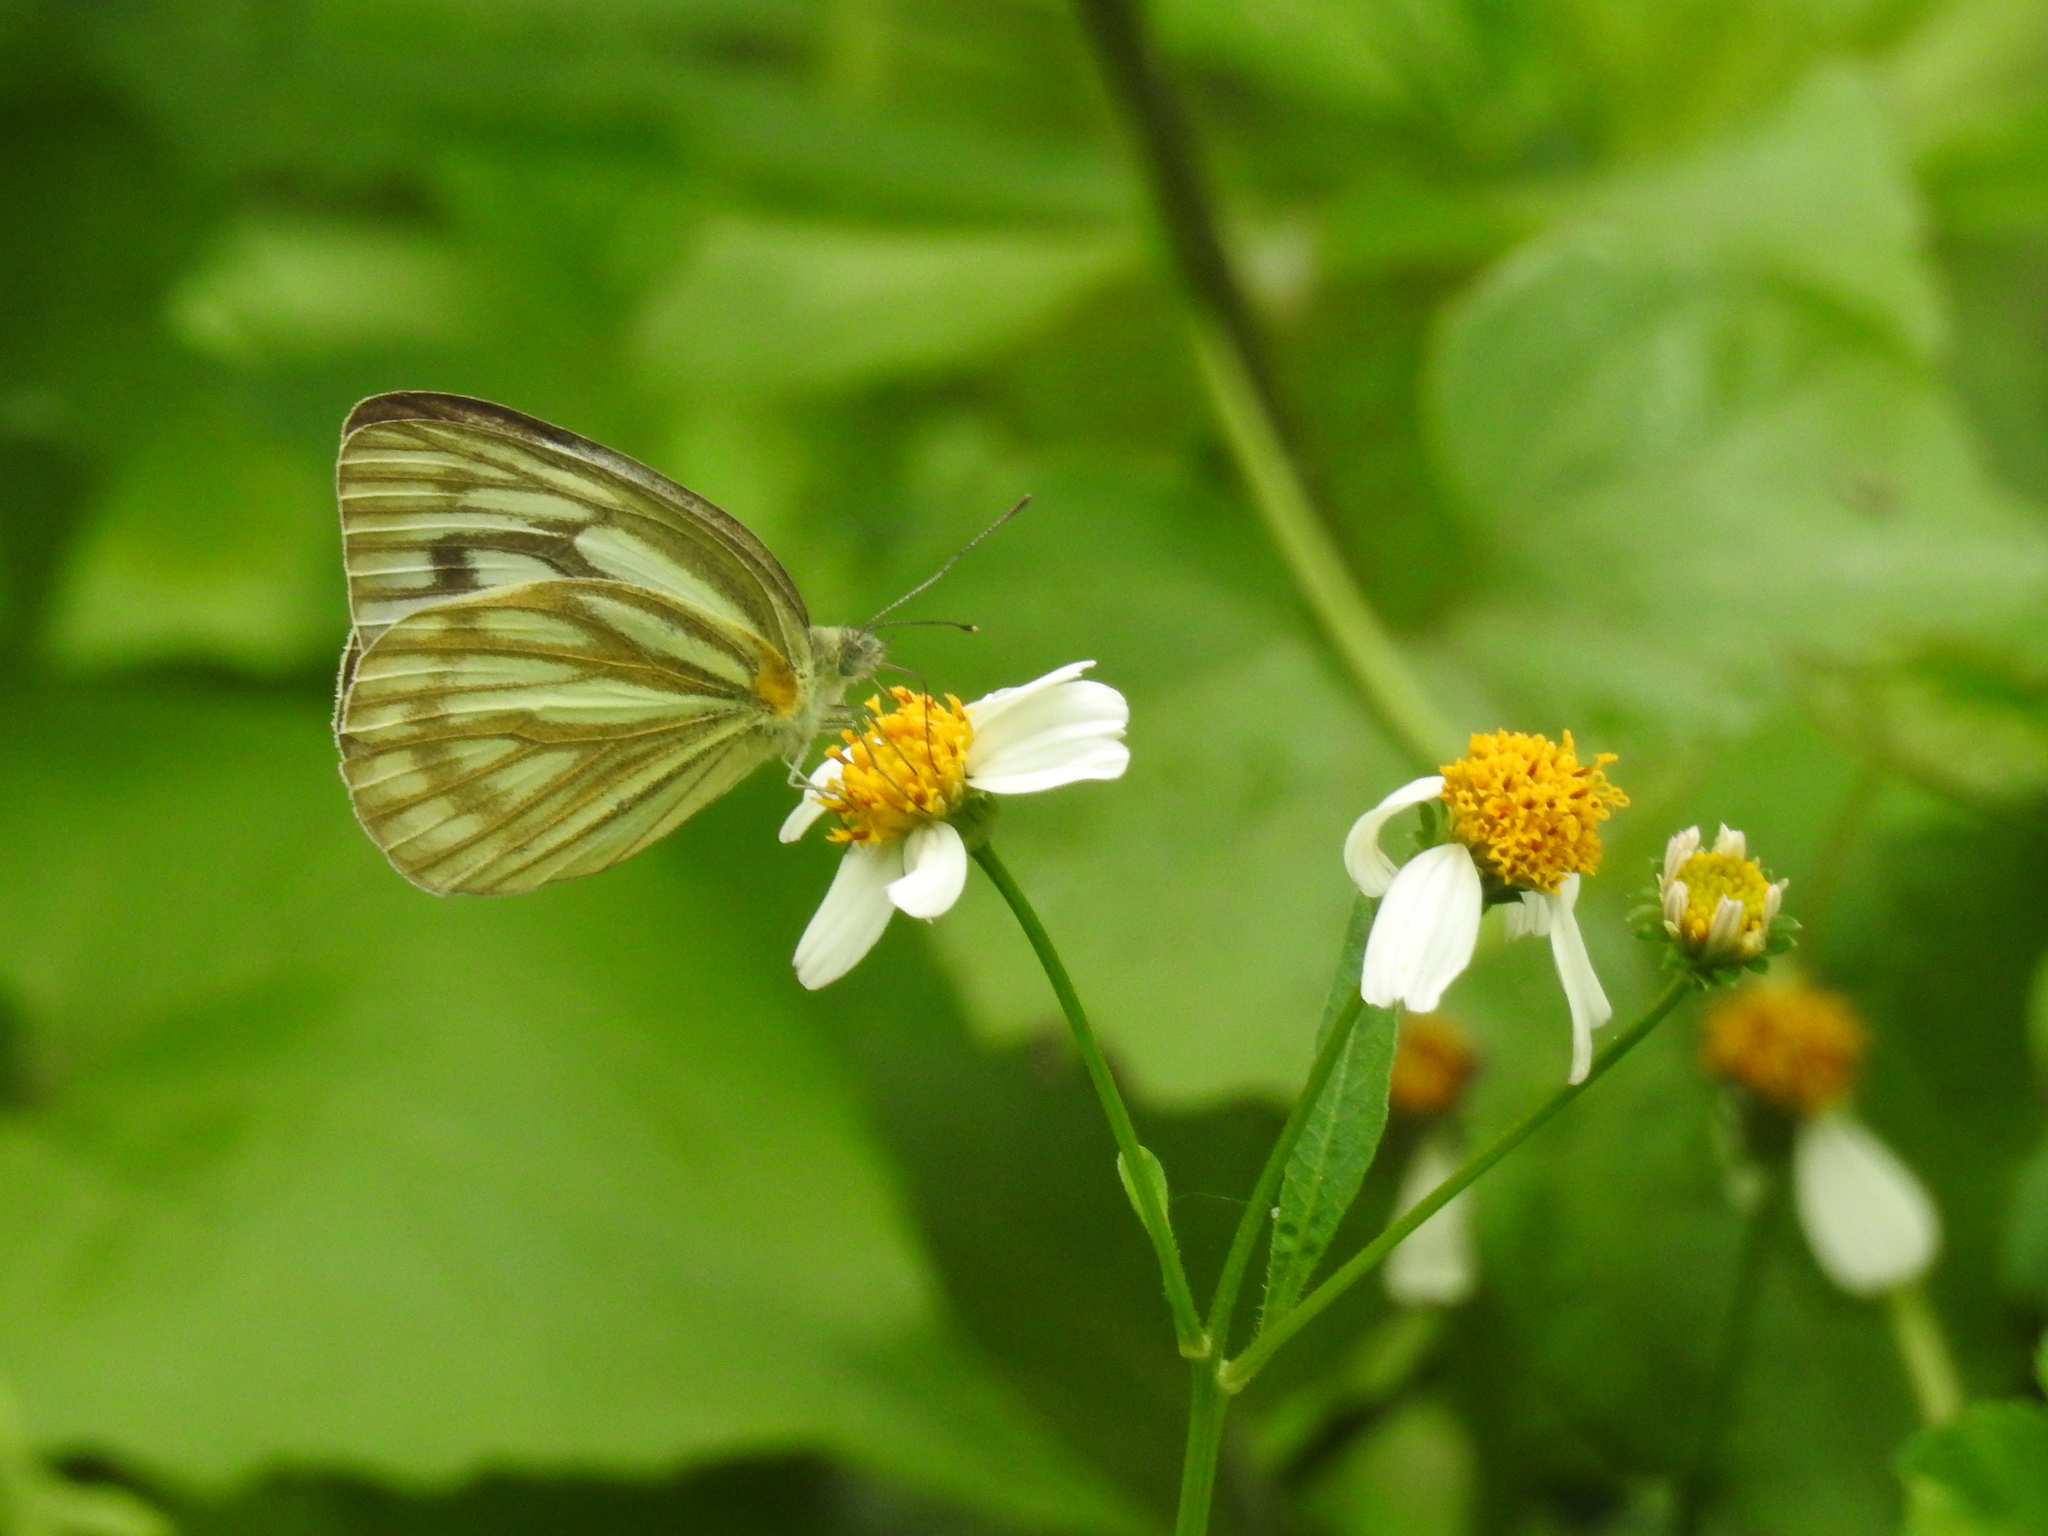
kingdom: Animalia
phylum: Arthropoda
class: Insecta
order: Lepidoptera
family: Pieridae
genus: Cepora
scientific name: Cepora nerissa
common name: Common gull
